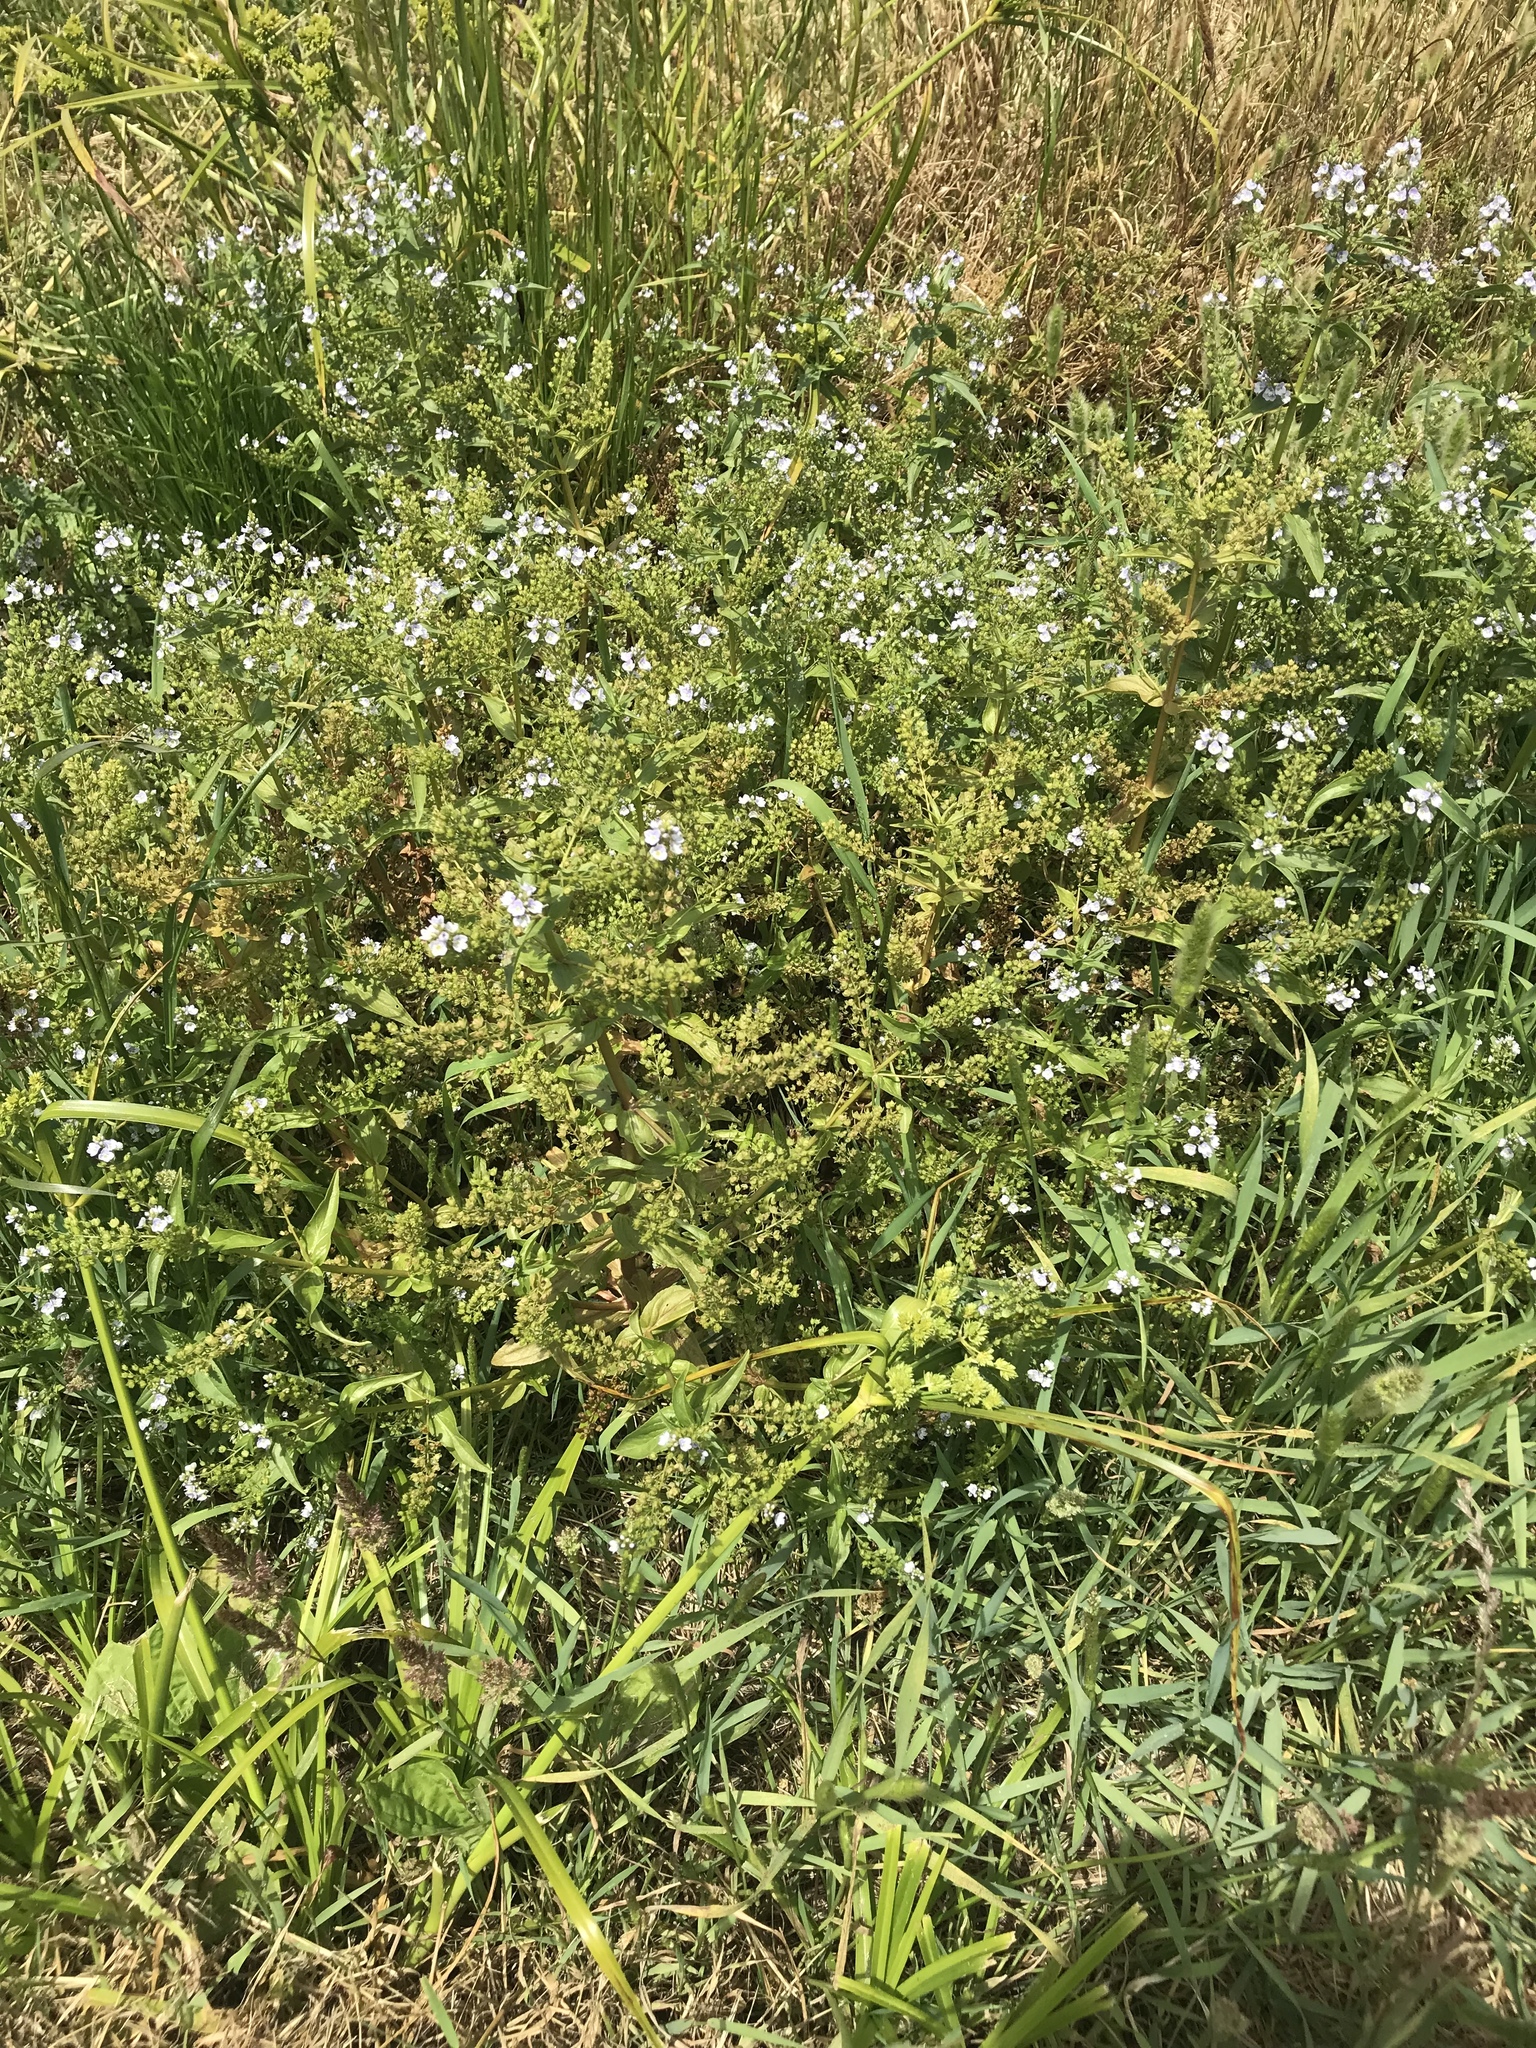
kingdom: Plantae
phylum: Tracheophyta
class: Magnoliopsida
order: Lamiales
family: Plantaginaceae
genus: Veronica
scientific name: Veronica anagallis-aquatica
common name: Water speedwell
